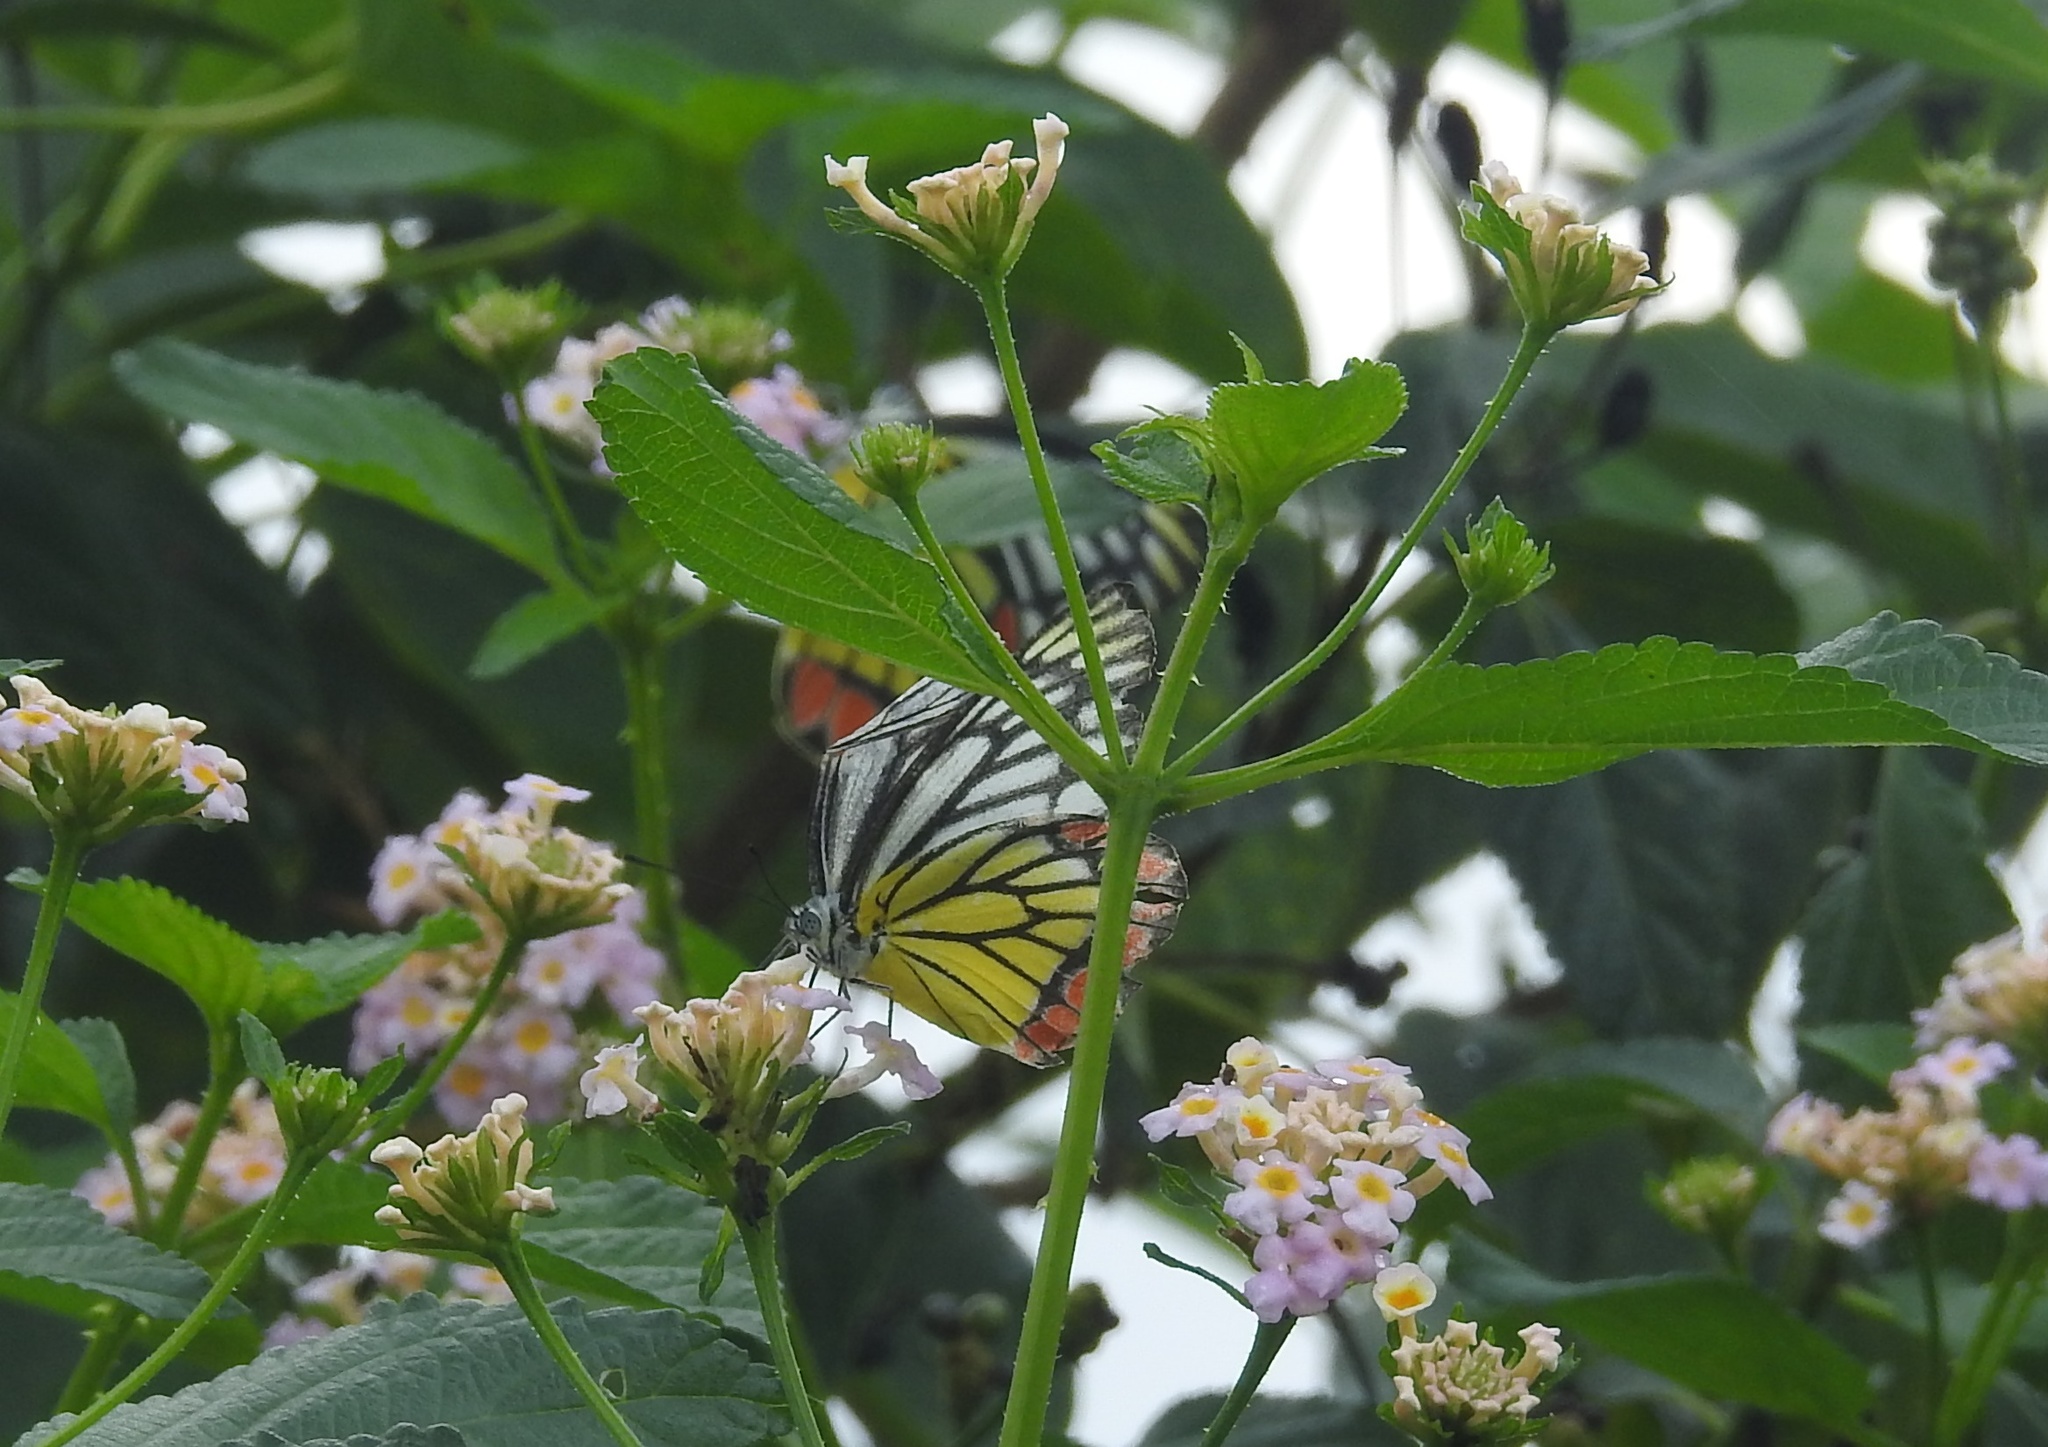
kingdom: Animalia
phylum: Arthropoda
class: Insecta
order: Lepidoptera
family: Pieridae
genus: Delias
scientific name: Delias eucharis
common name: Common jezebel
